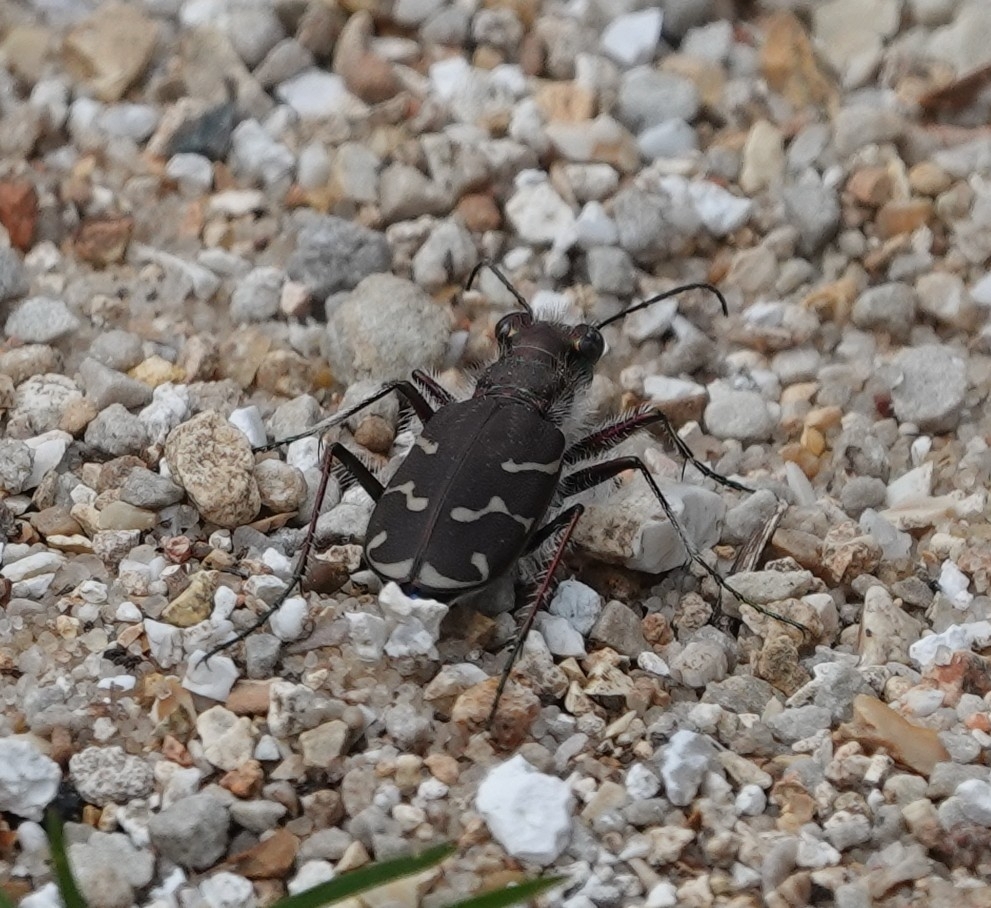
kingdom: Animalia
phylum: Arthropoda
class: Insecta
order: Coleoptera
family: Carabidae
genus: Cicindela
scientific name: Cicindela tranquebarica
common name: Oblique-lined tiger beetle
